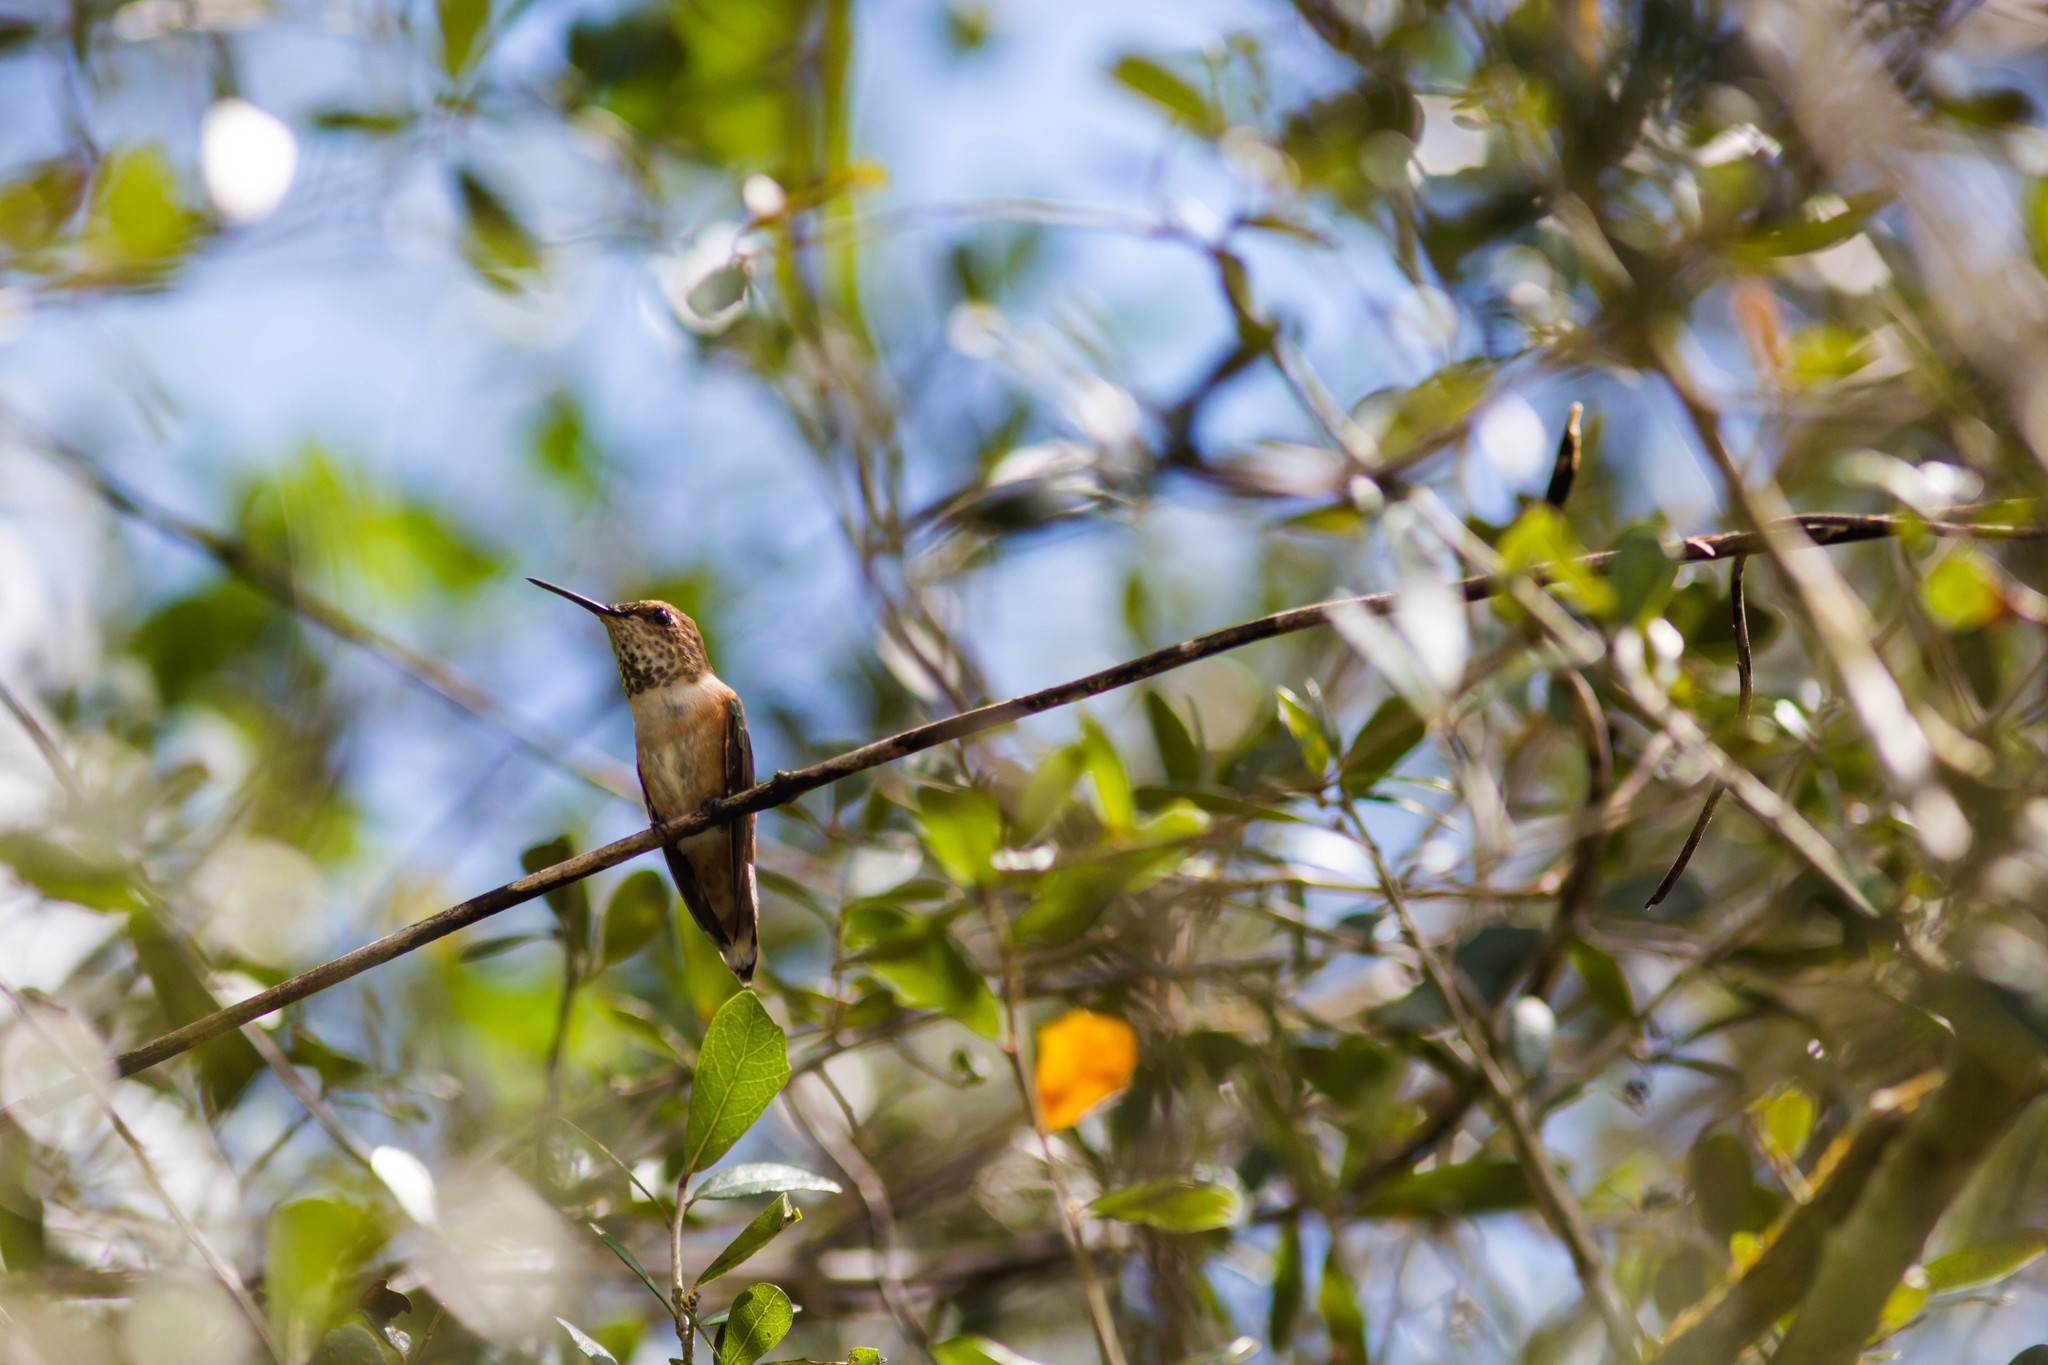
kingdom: Animalia
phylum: Chordata
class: Aves
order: Apodiformes
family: Trochilidae
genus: Selasphorus
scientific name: Selasphorus rufus
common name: Rufous hummingbird
